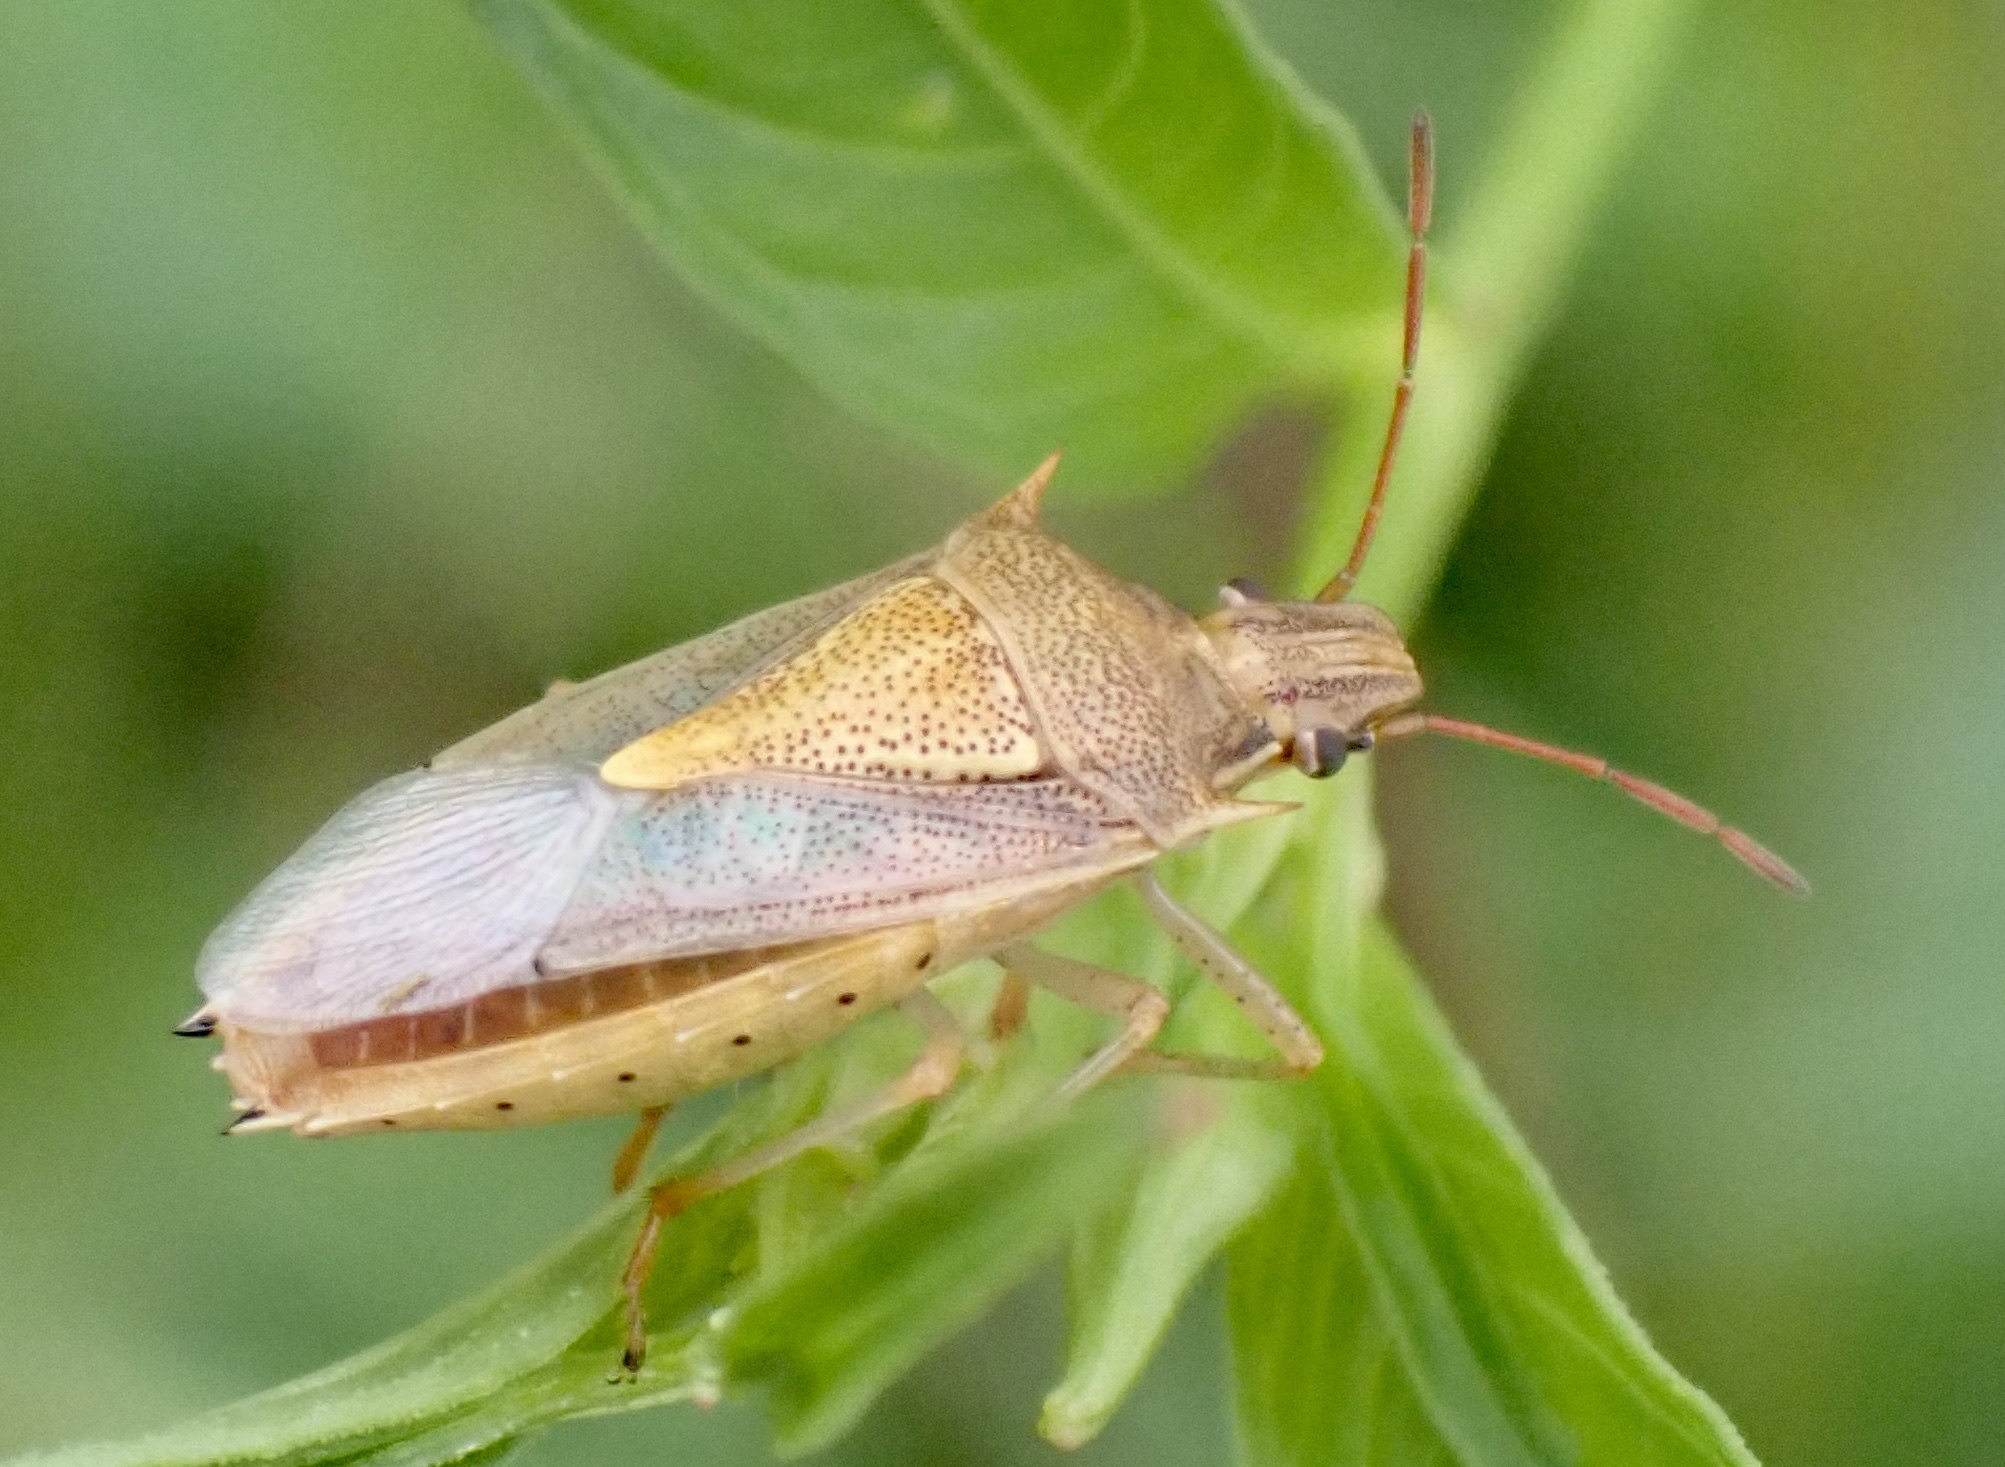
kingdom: Animalia
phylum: Arthropoda
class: Insecta
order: Hemiptera
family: Pentatomidae
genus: Oebalus
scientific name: Oebalus pugnax
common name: Rice stink bug
